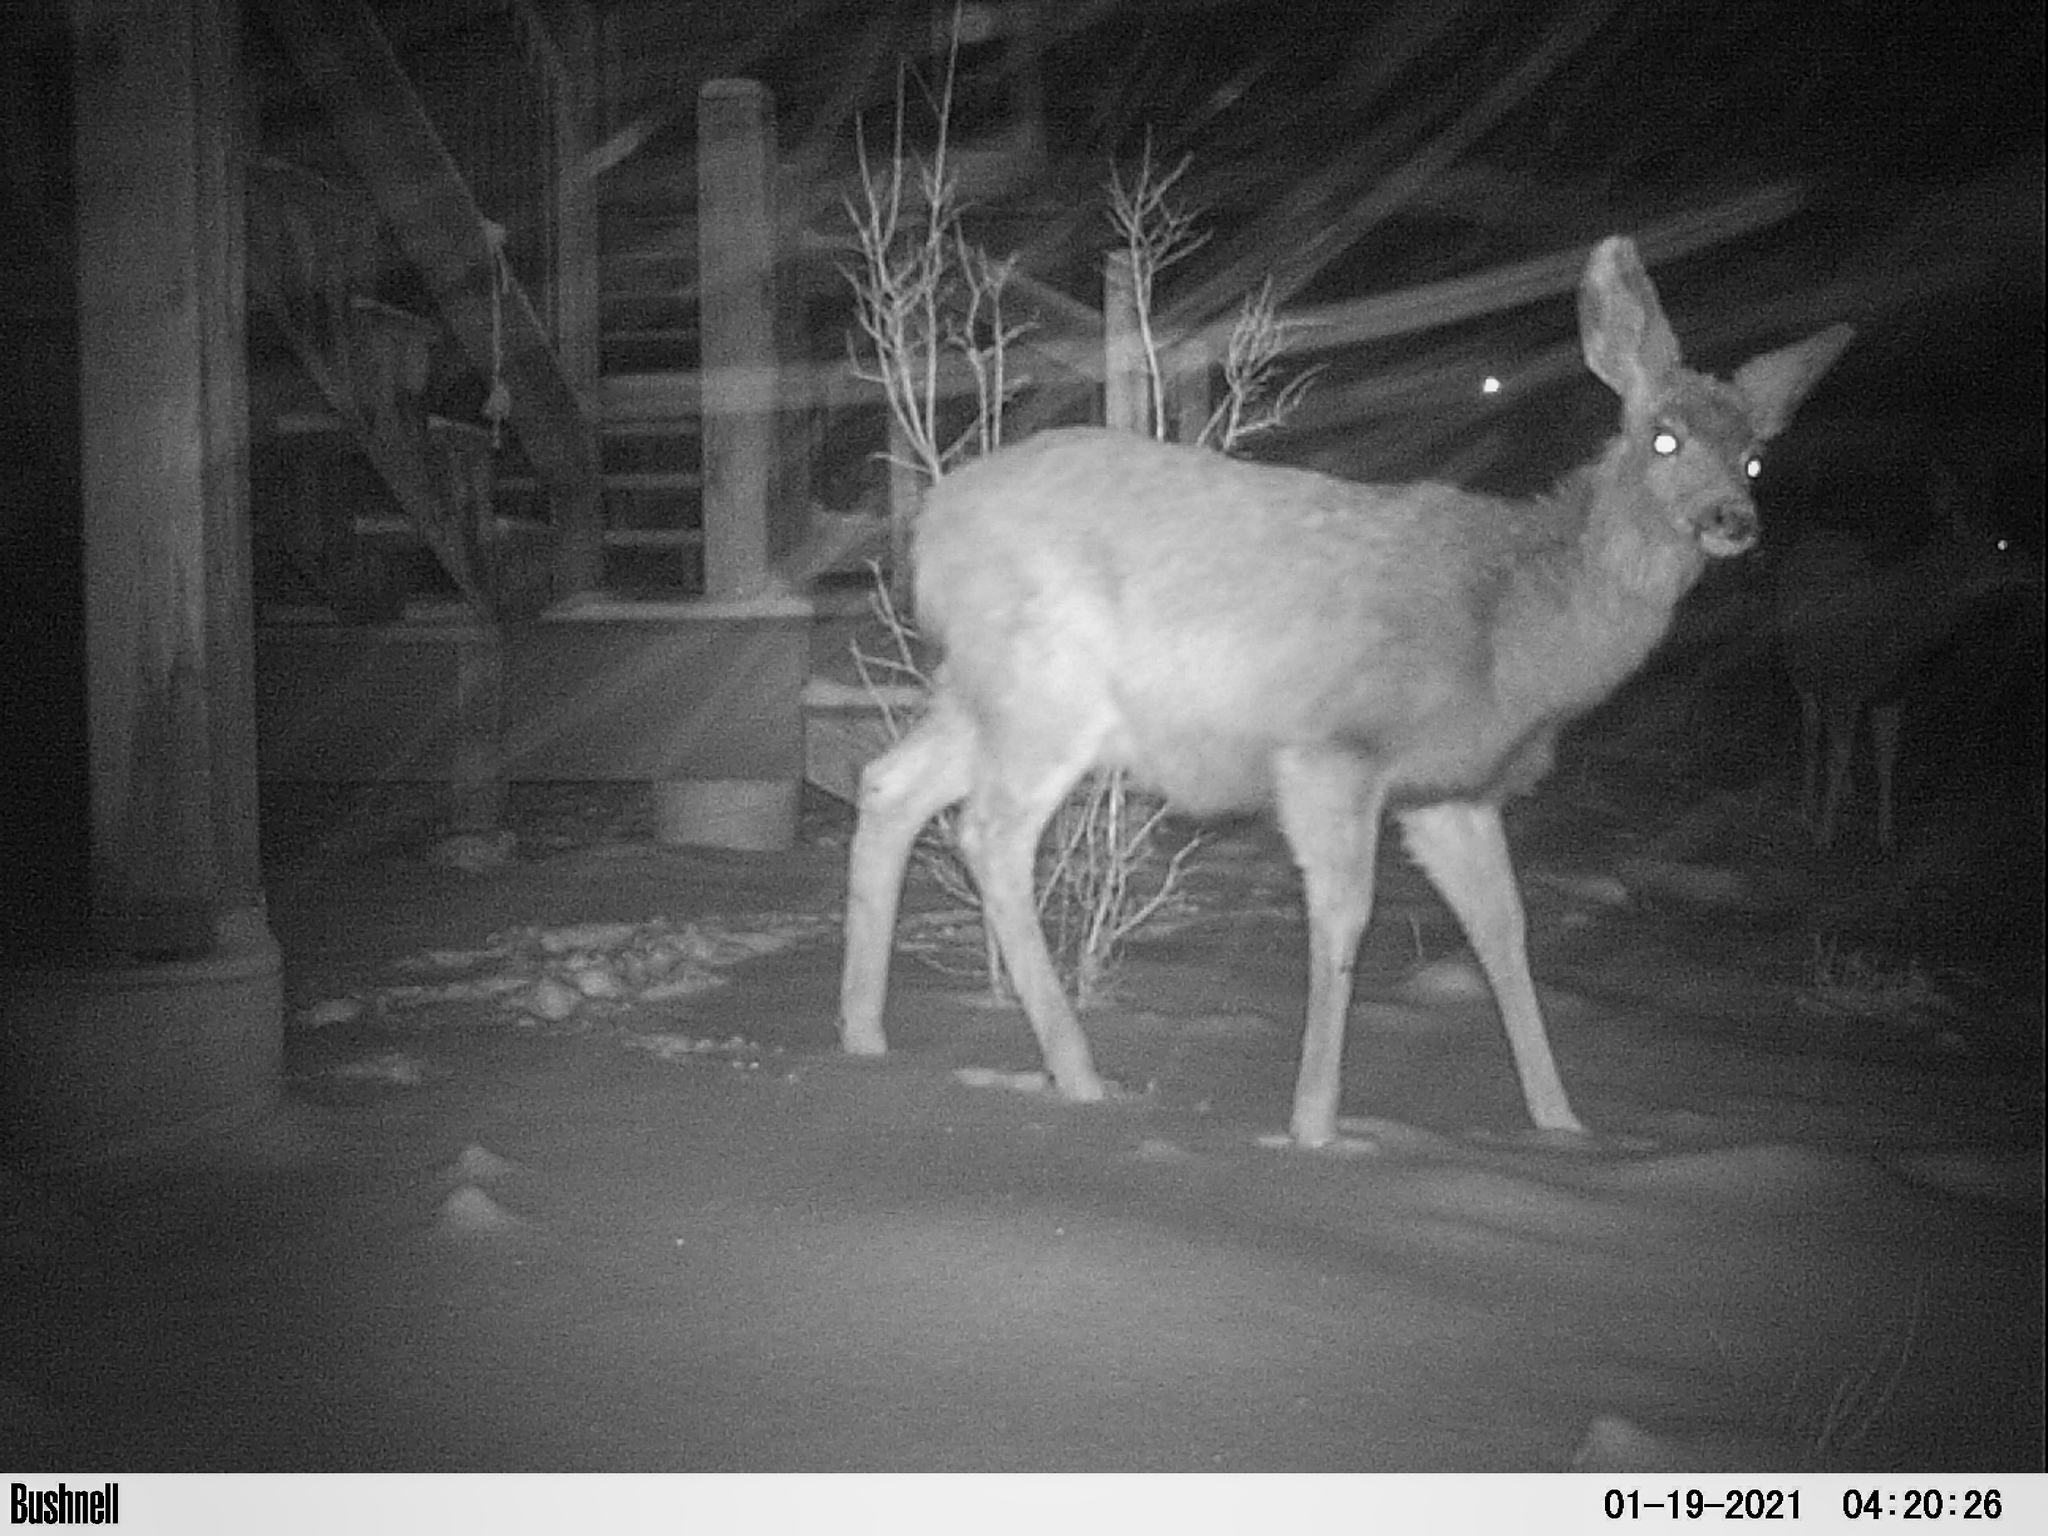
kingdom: Animalia
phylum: Chordata
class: Mammalia
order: Artiodactyla
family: Cervidae
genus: Odocoileus
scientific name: Odocoileus hemionus
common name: Mule deer
